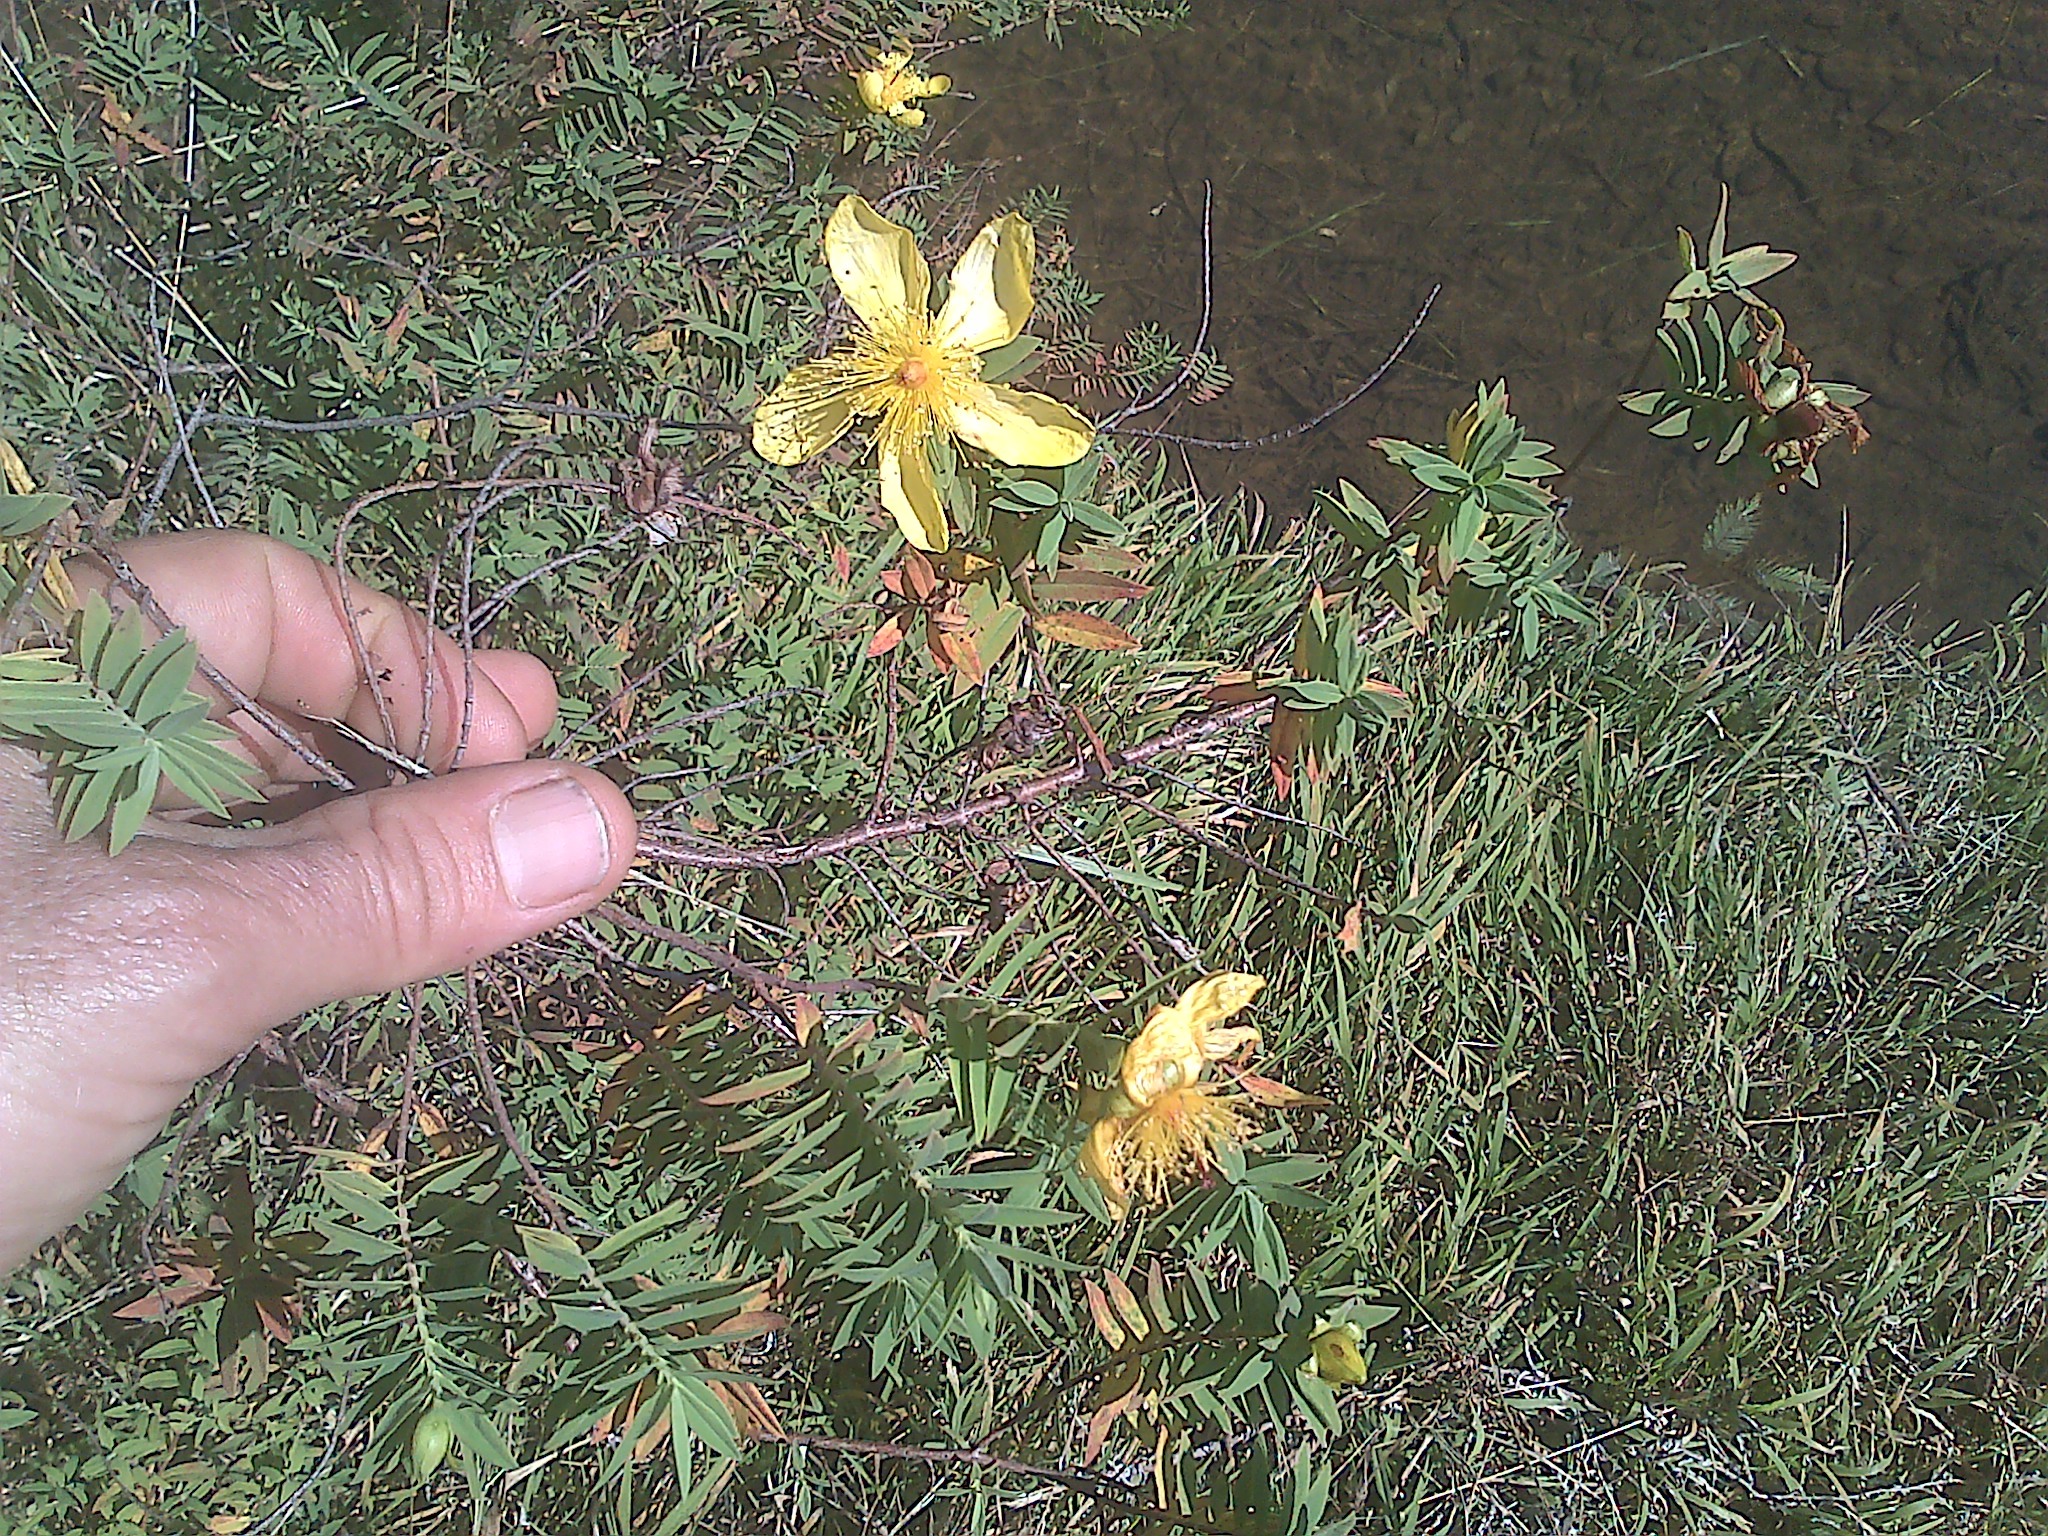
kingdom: Plantae
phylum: Tracheophyta
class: Magnoliopsida
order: Malpighiales
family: Hypericaceae
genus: Hypericum
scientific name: Hypericum revolutum
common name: Curry bush
